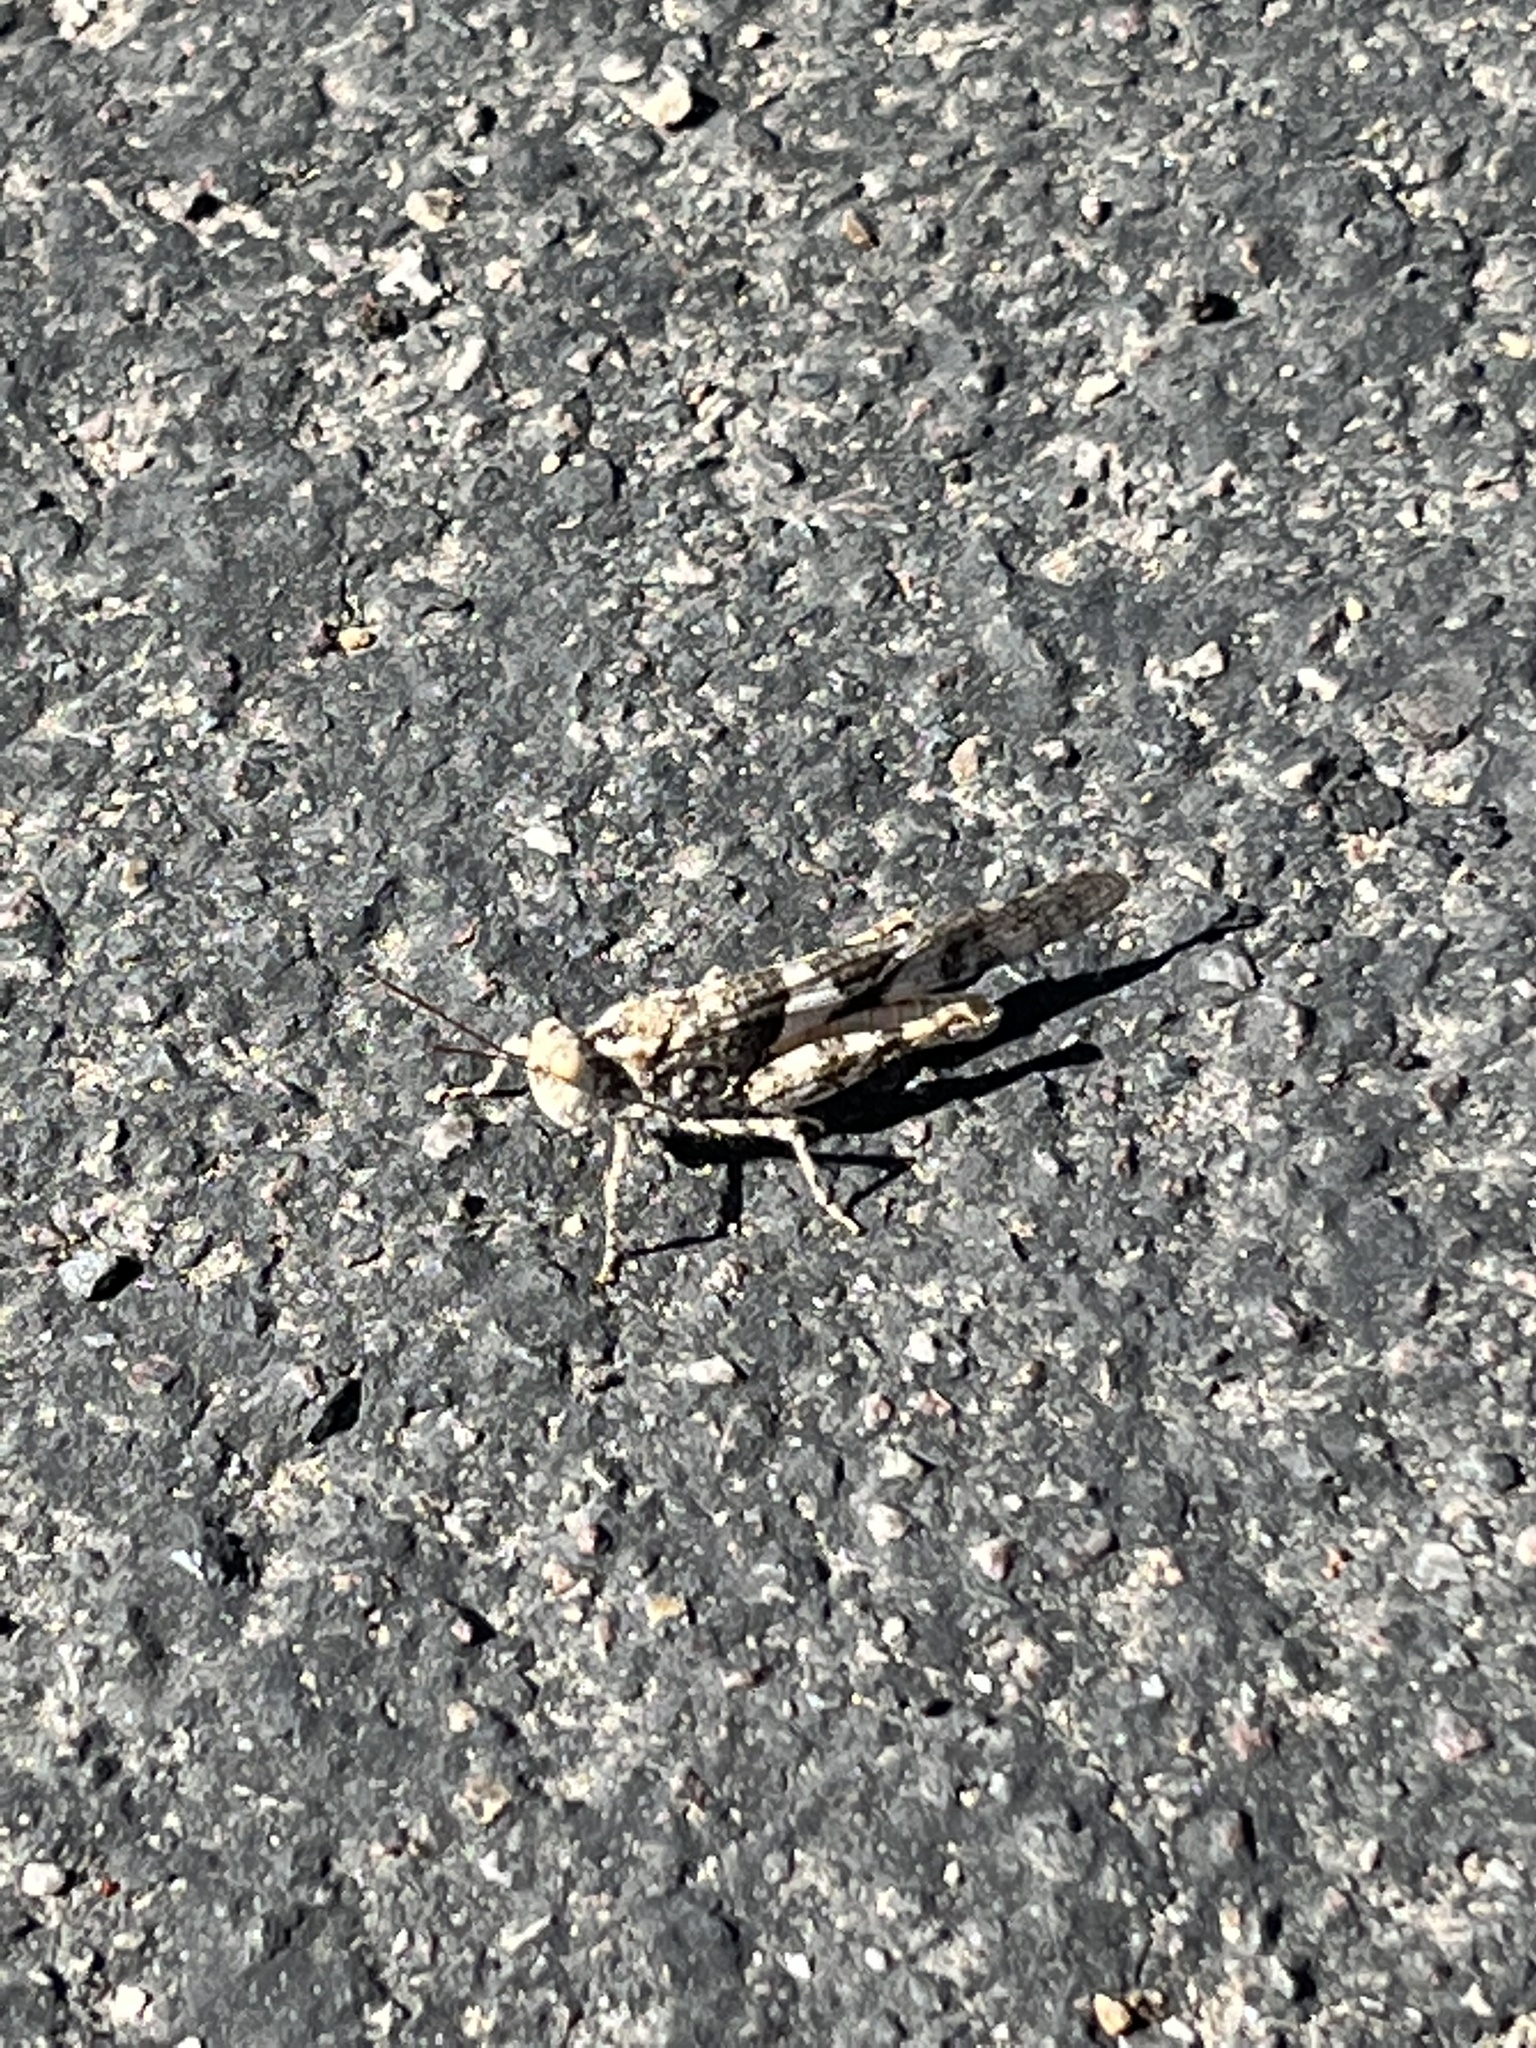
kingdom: Animalia
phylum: Arthropoda
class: Insecta
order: Orthoptera
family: Acrididae
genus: Trimerotropis
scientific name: Trimerotropis pallidipennis
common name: Pallid-winged grasshopper
